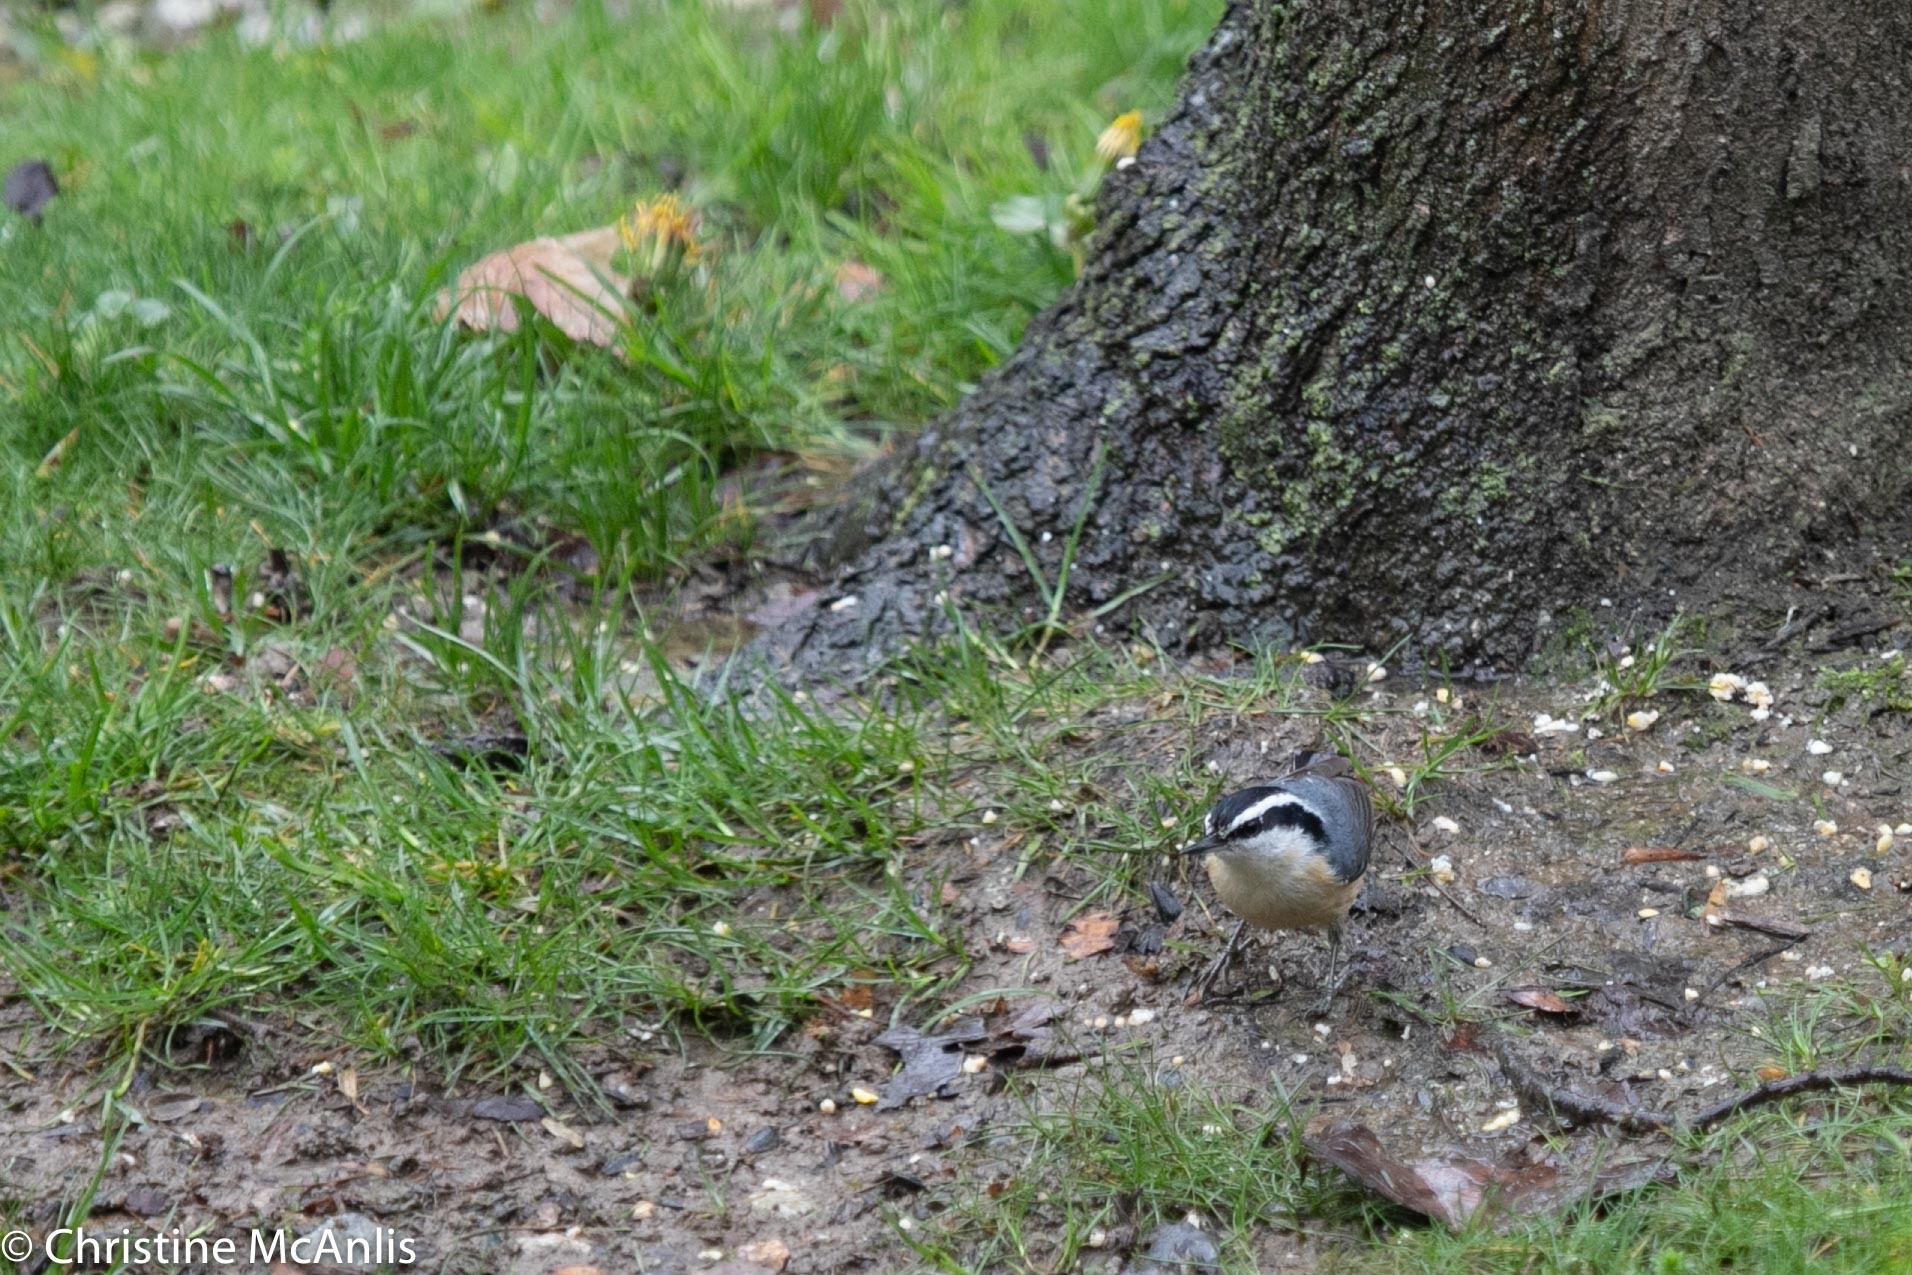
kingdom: Animalia
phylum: Chordata
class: Aves
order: Passeriformes
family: Sittidae
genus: Sitta
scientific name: Sitta canadensis
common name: Red-breasted nuthatch
